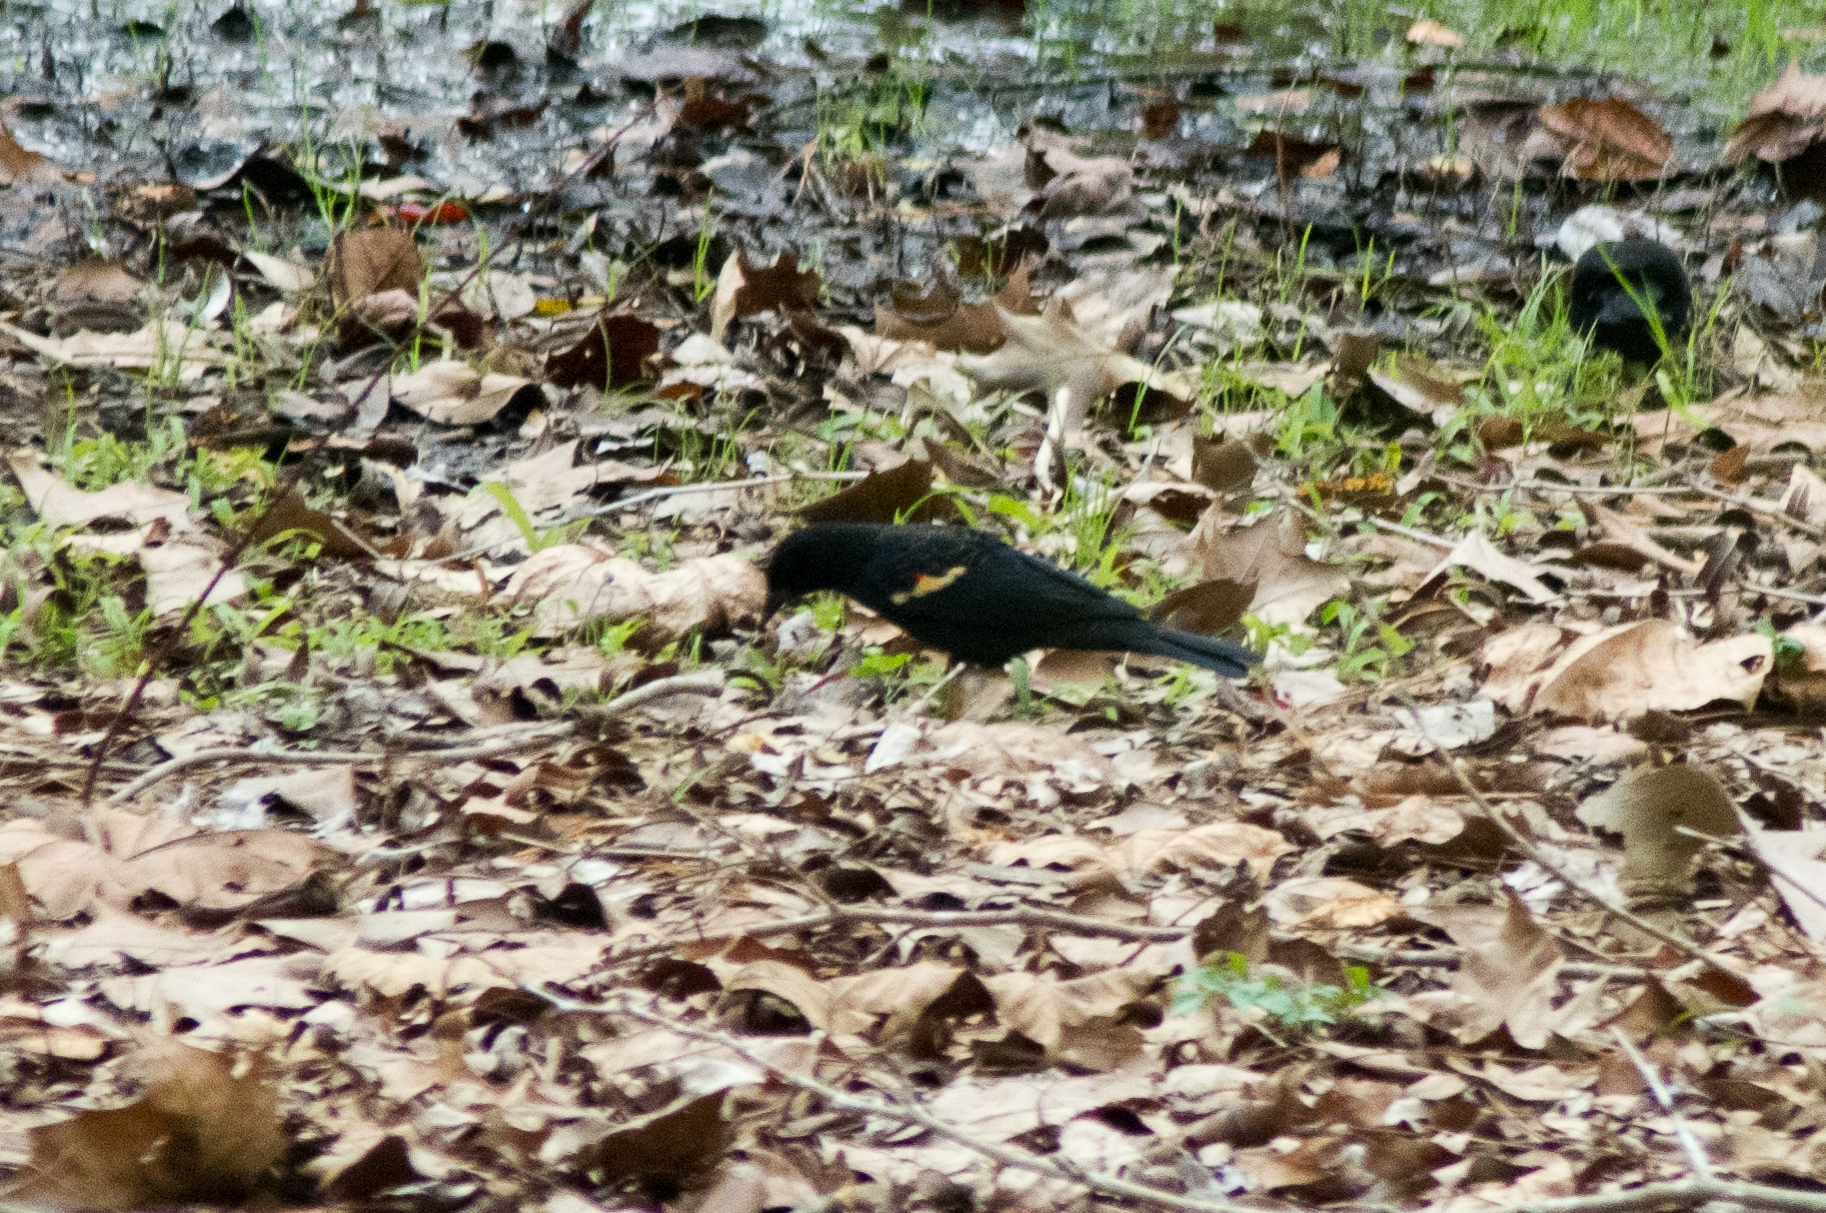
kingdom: Animalia
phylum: Chordata
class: Aves
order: Passeriformes
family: Icteridae
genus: Agelaius
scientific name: Agelaius phoeniceus
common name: Red-winged blackbird
